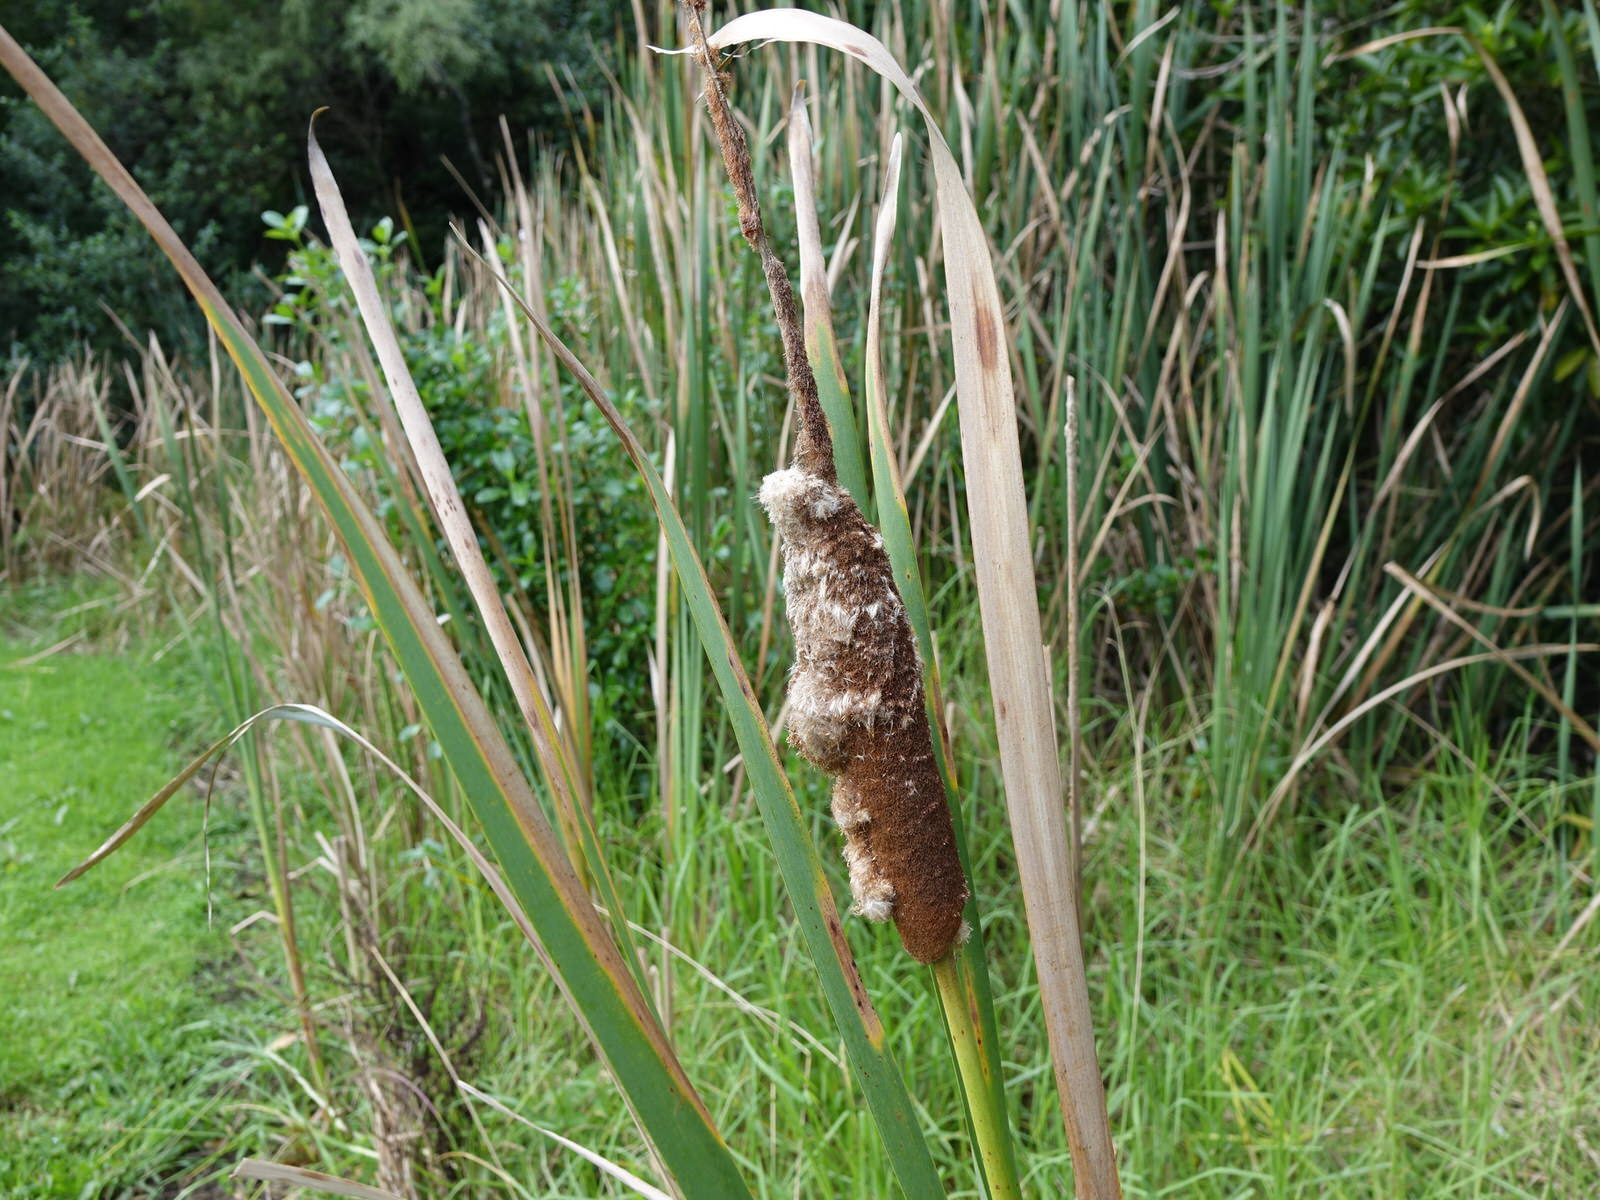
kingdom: Plantae
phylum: Tracheophyta
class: Liliopsida
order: Poales
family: Typhaceae
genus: Typha
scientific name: Typha orientalis
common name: Bullrush
